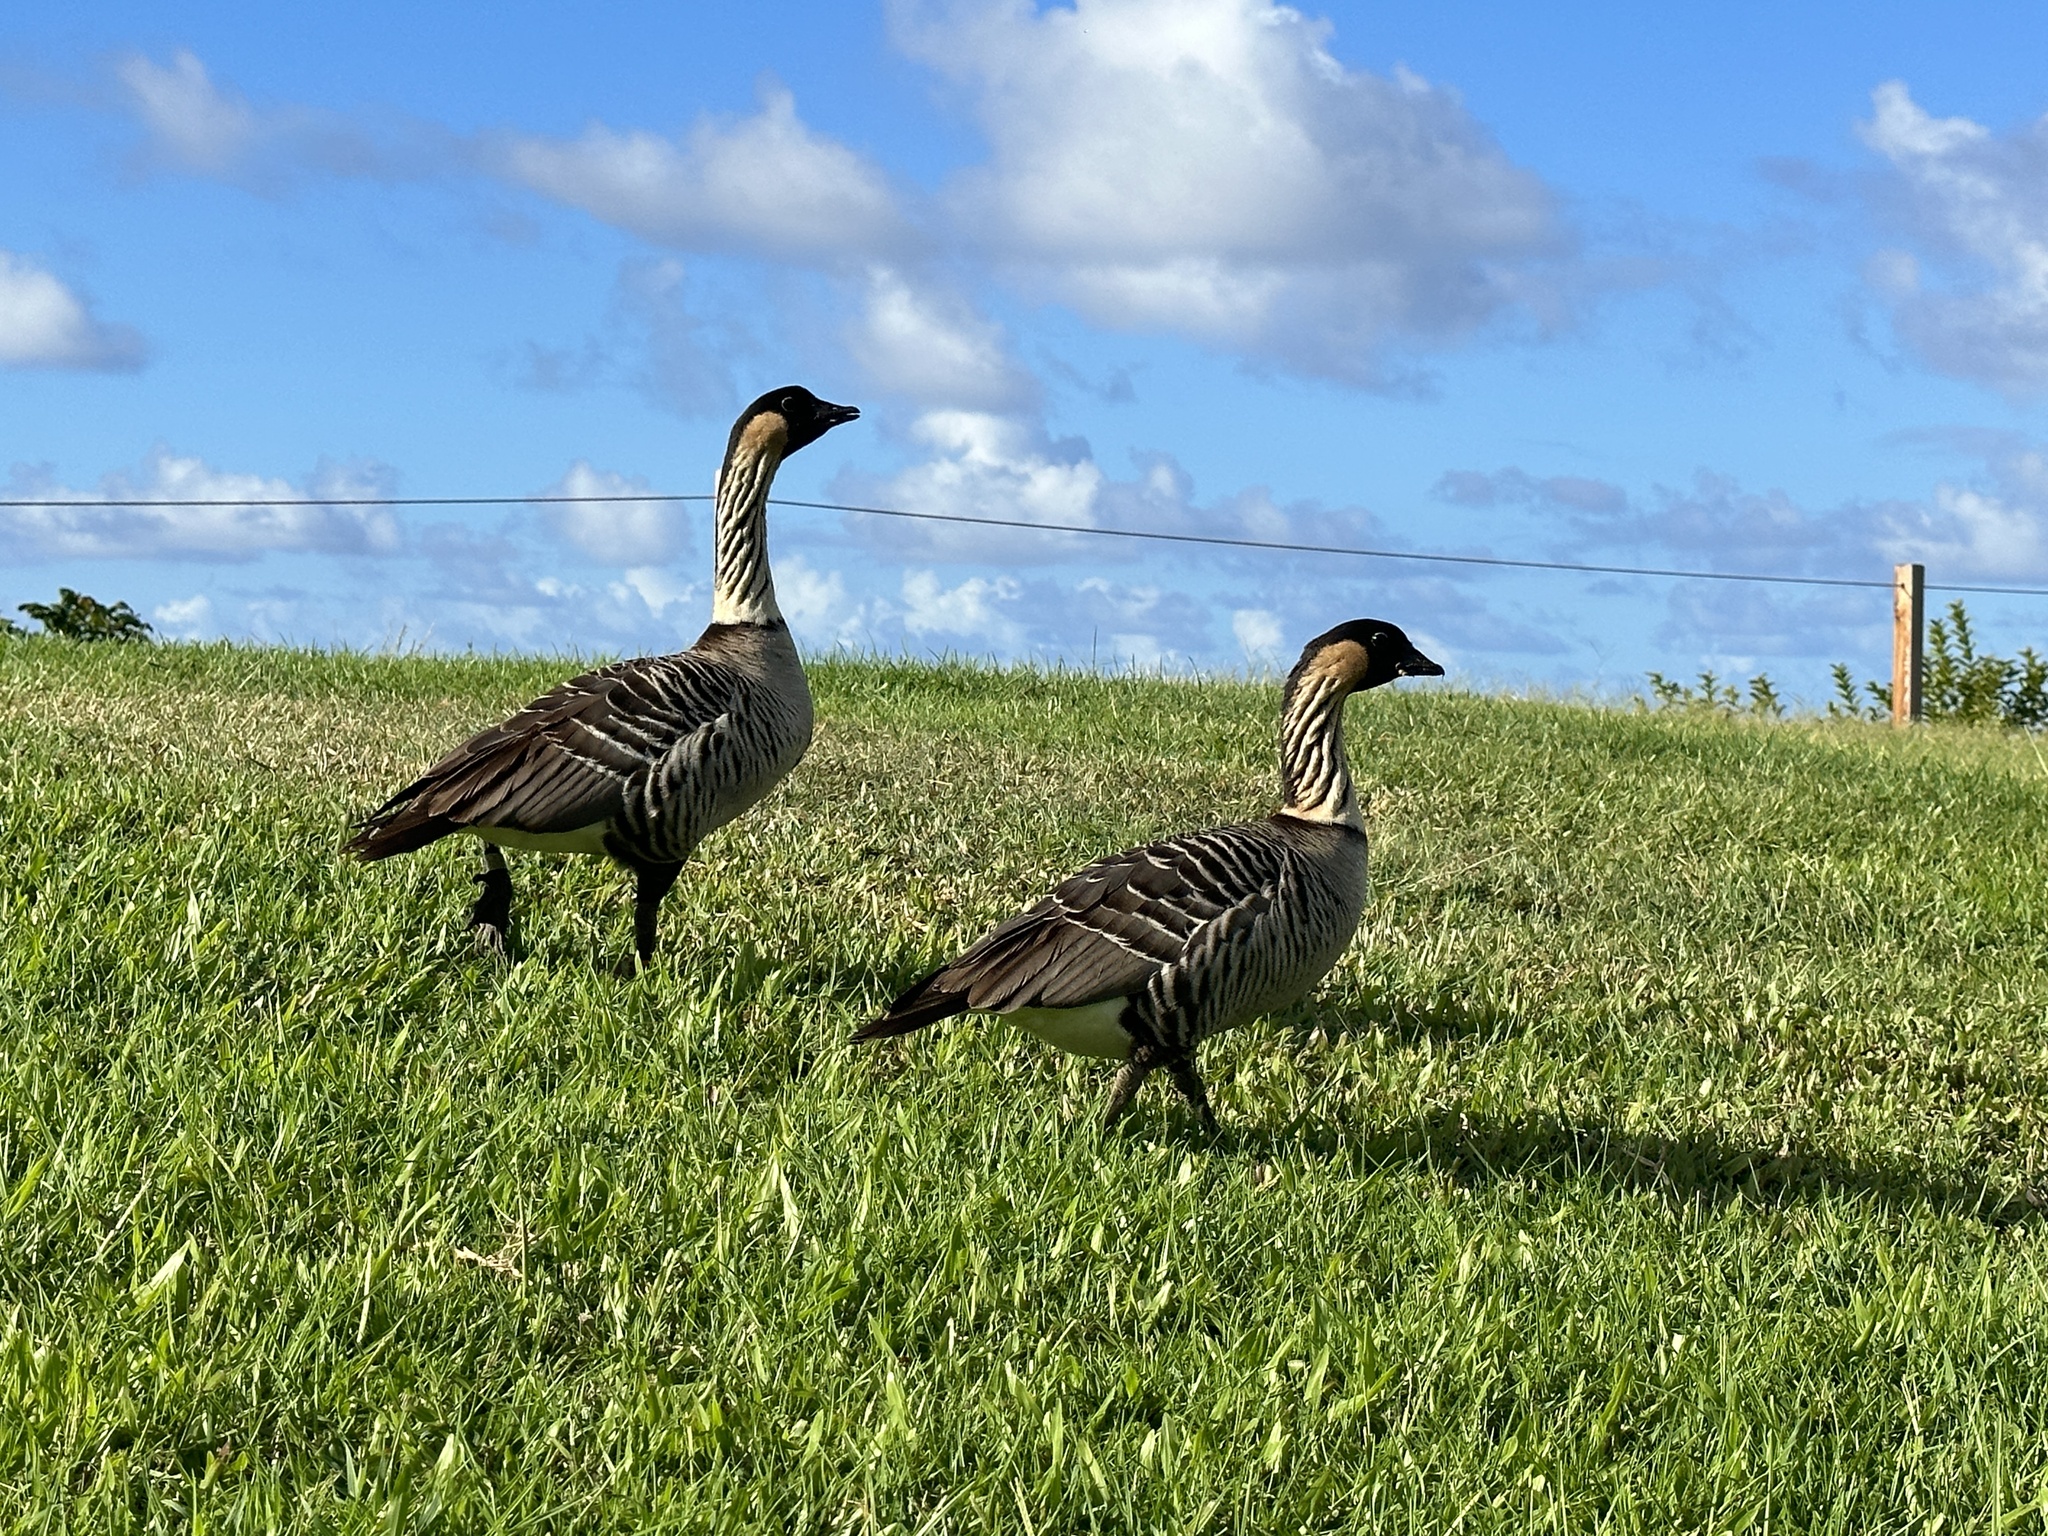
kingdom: Animalia
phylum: Chordata
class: Aves
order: Anseriformes
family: Anatidae
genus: Branta
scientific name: Branta sandvicensis
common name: Nene
